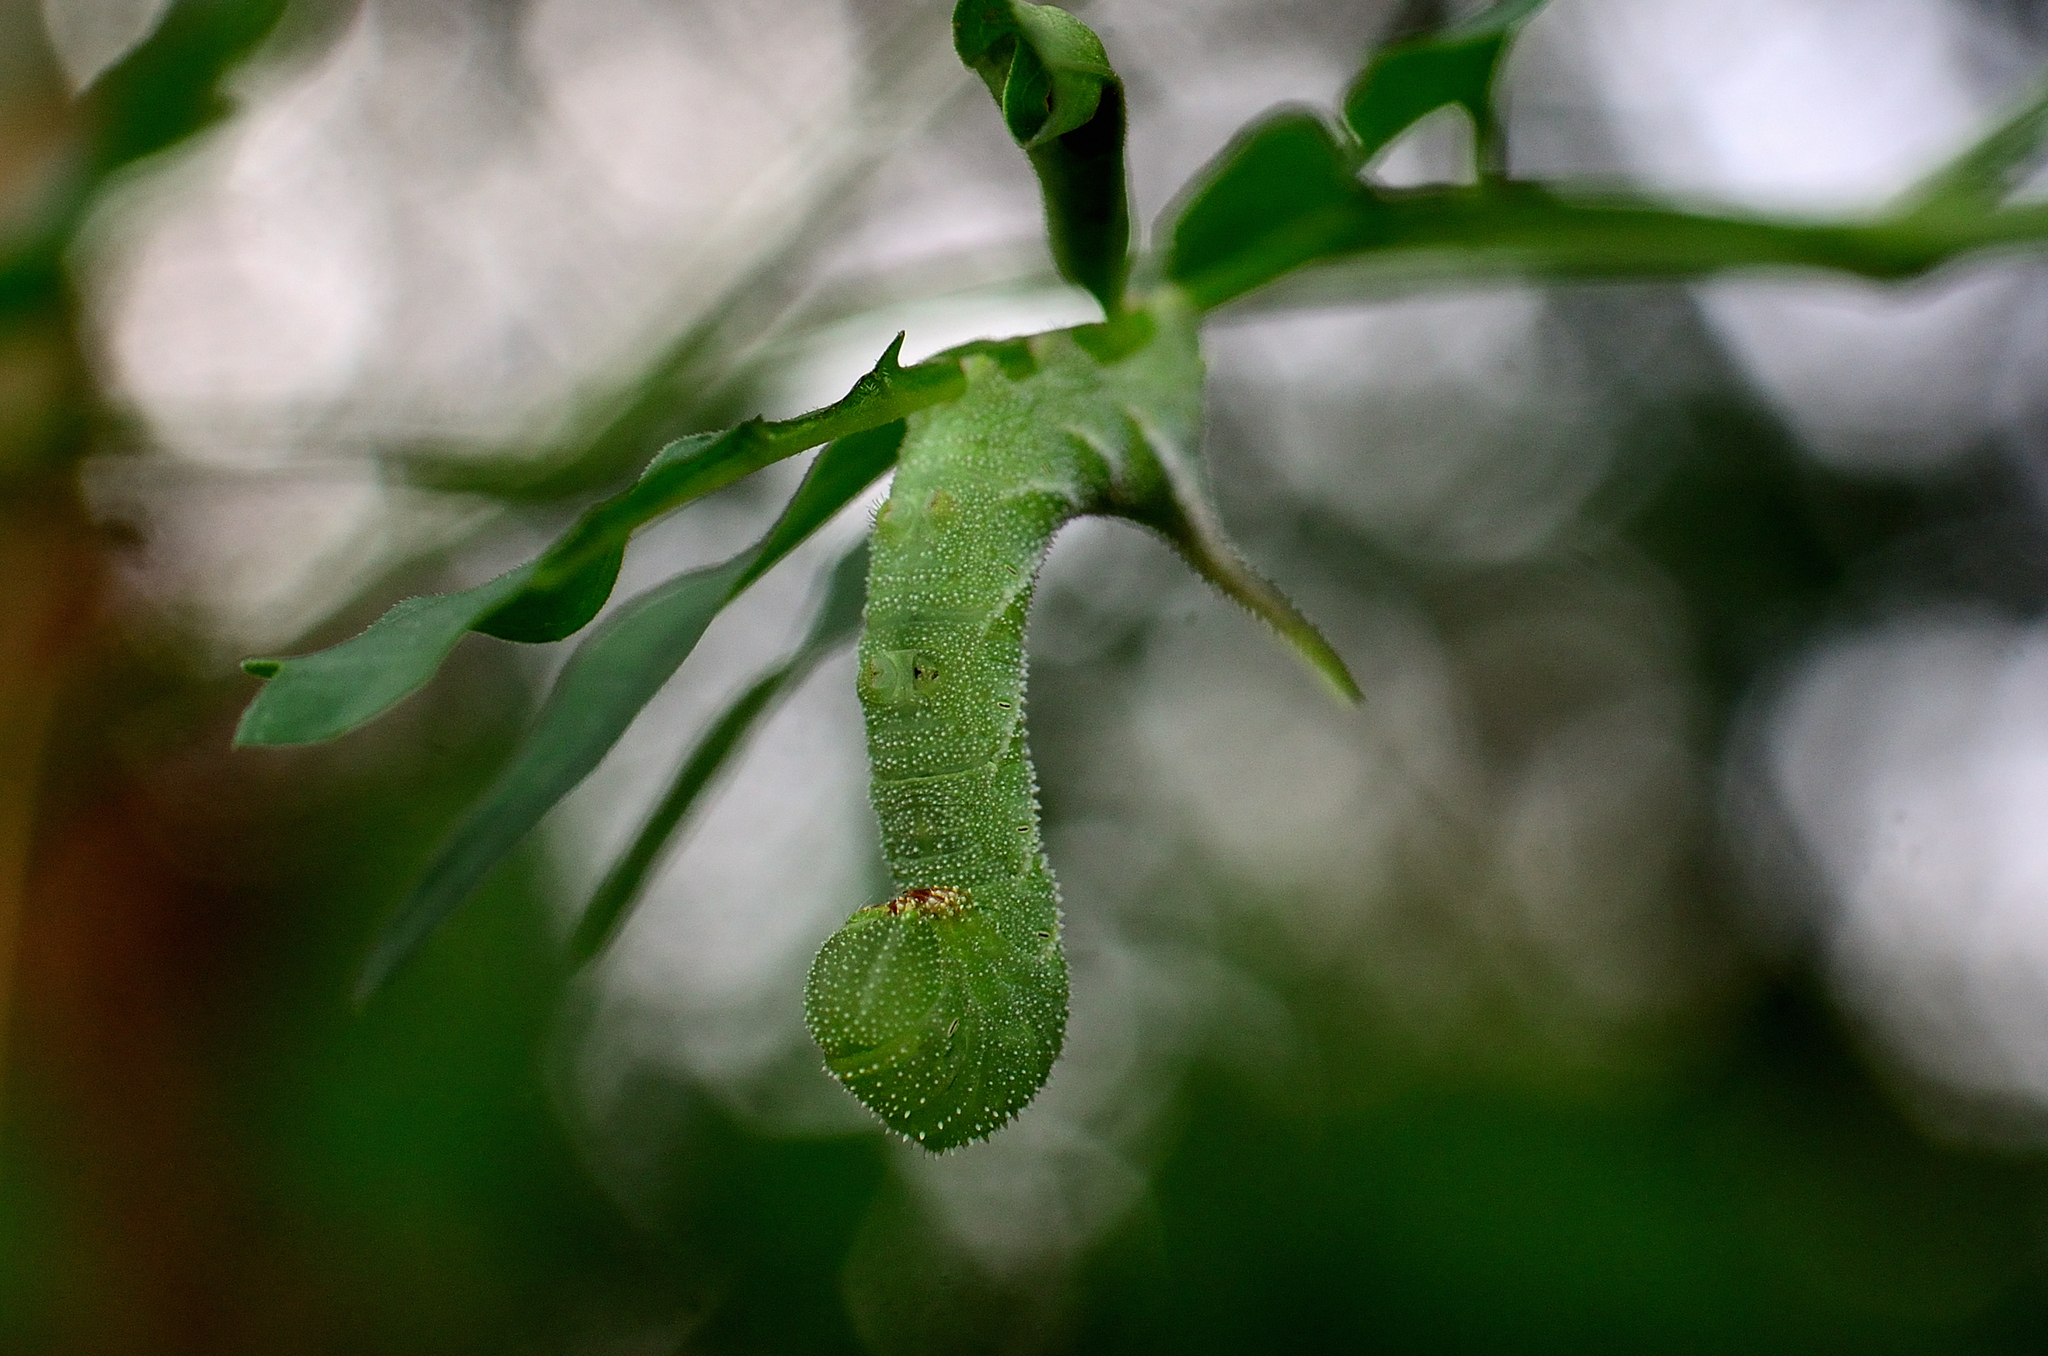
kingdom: Animalia
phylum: Arthropoda
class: Insecta
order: Lepidoptera
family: Sphingidae
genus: Acherontia
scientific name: Acherontia styx
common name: Death's-head hawk moth
